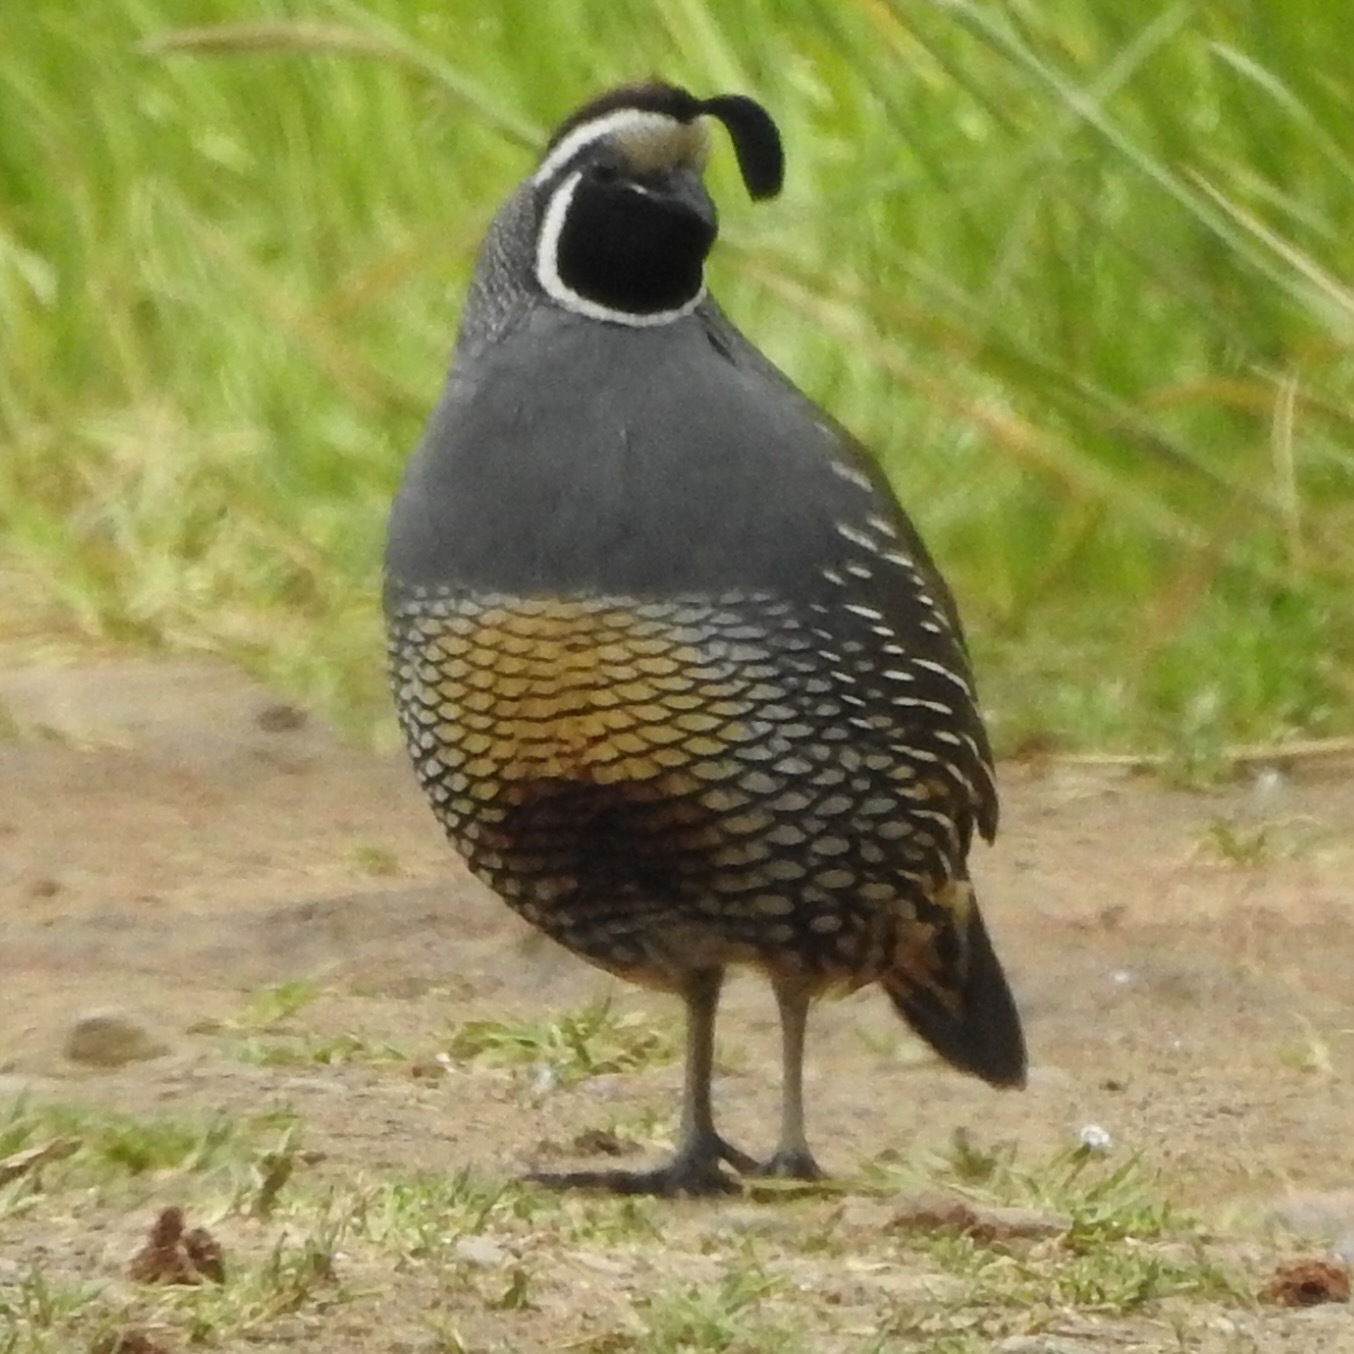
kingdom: Animalia
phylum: Chordata
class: Aves
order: Galliformes
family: Odontophoridae
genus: Callipepla
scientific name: Callipepla californica
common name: California quail
